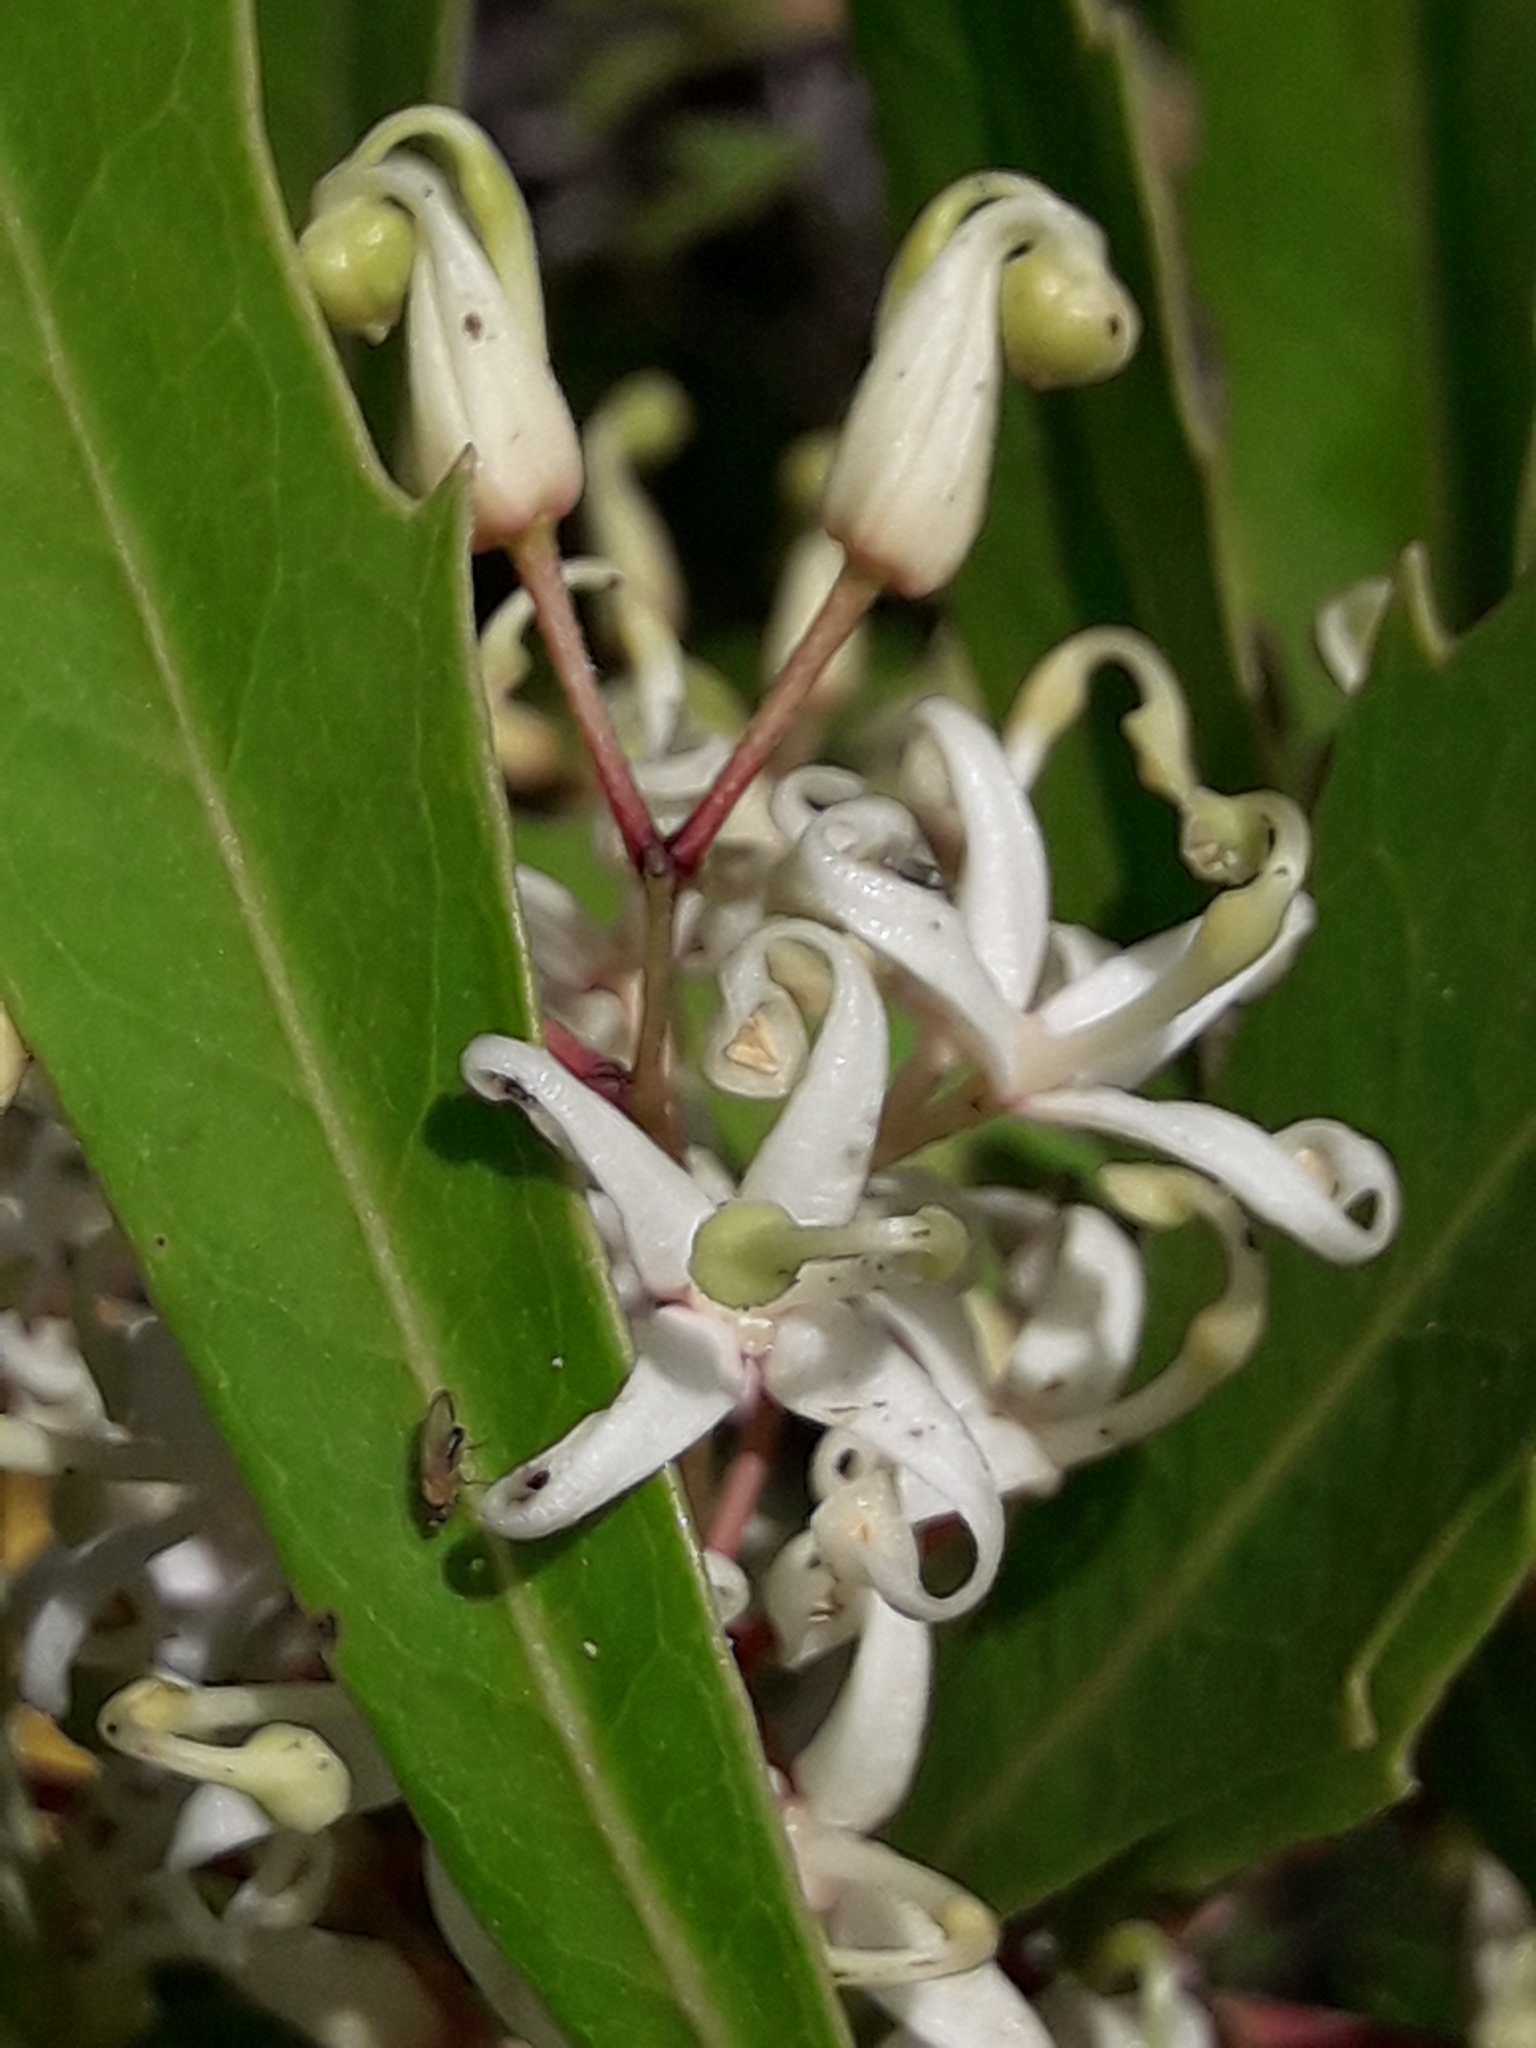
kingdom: Plantae
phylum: Tracheophyta
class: Magnoliopsida
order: Proteales
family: Proteaceae
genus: Lomatia
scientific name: Lomatia fraseri
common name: Forest lomatia
